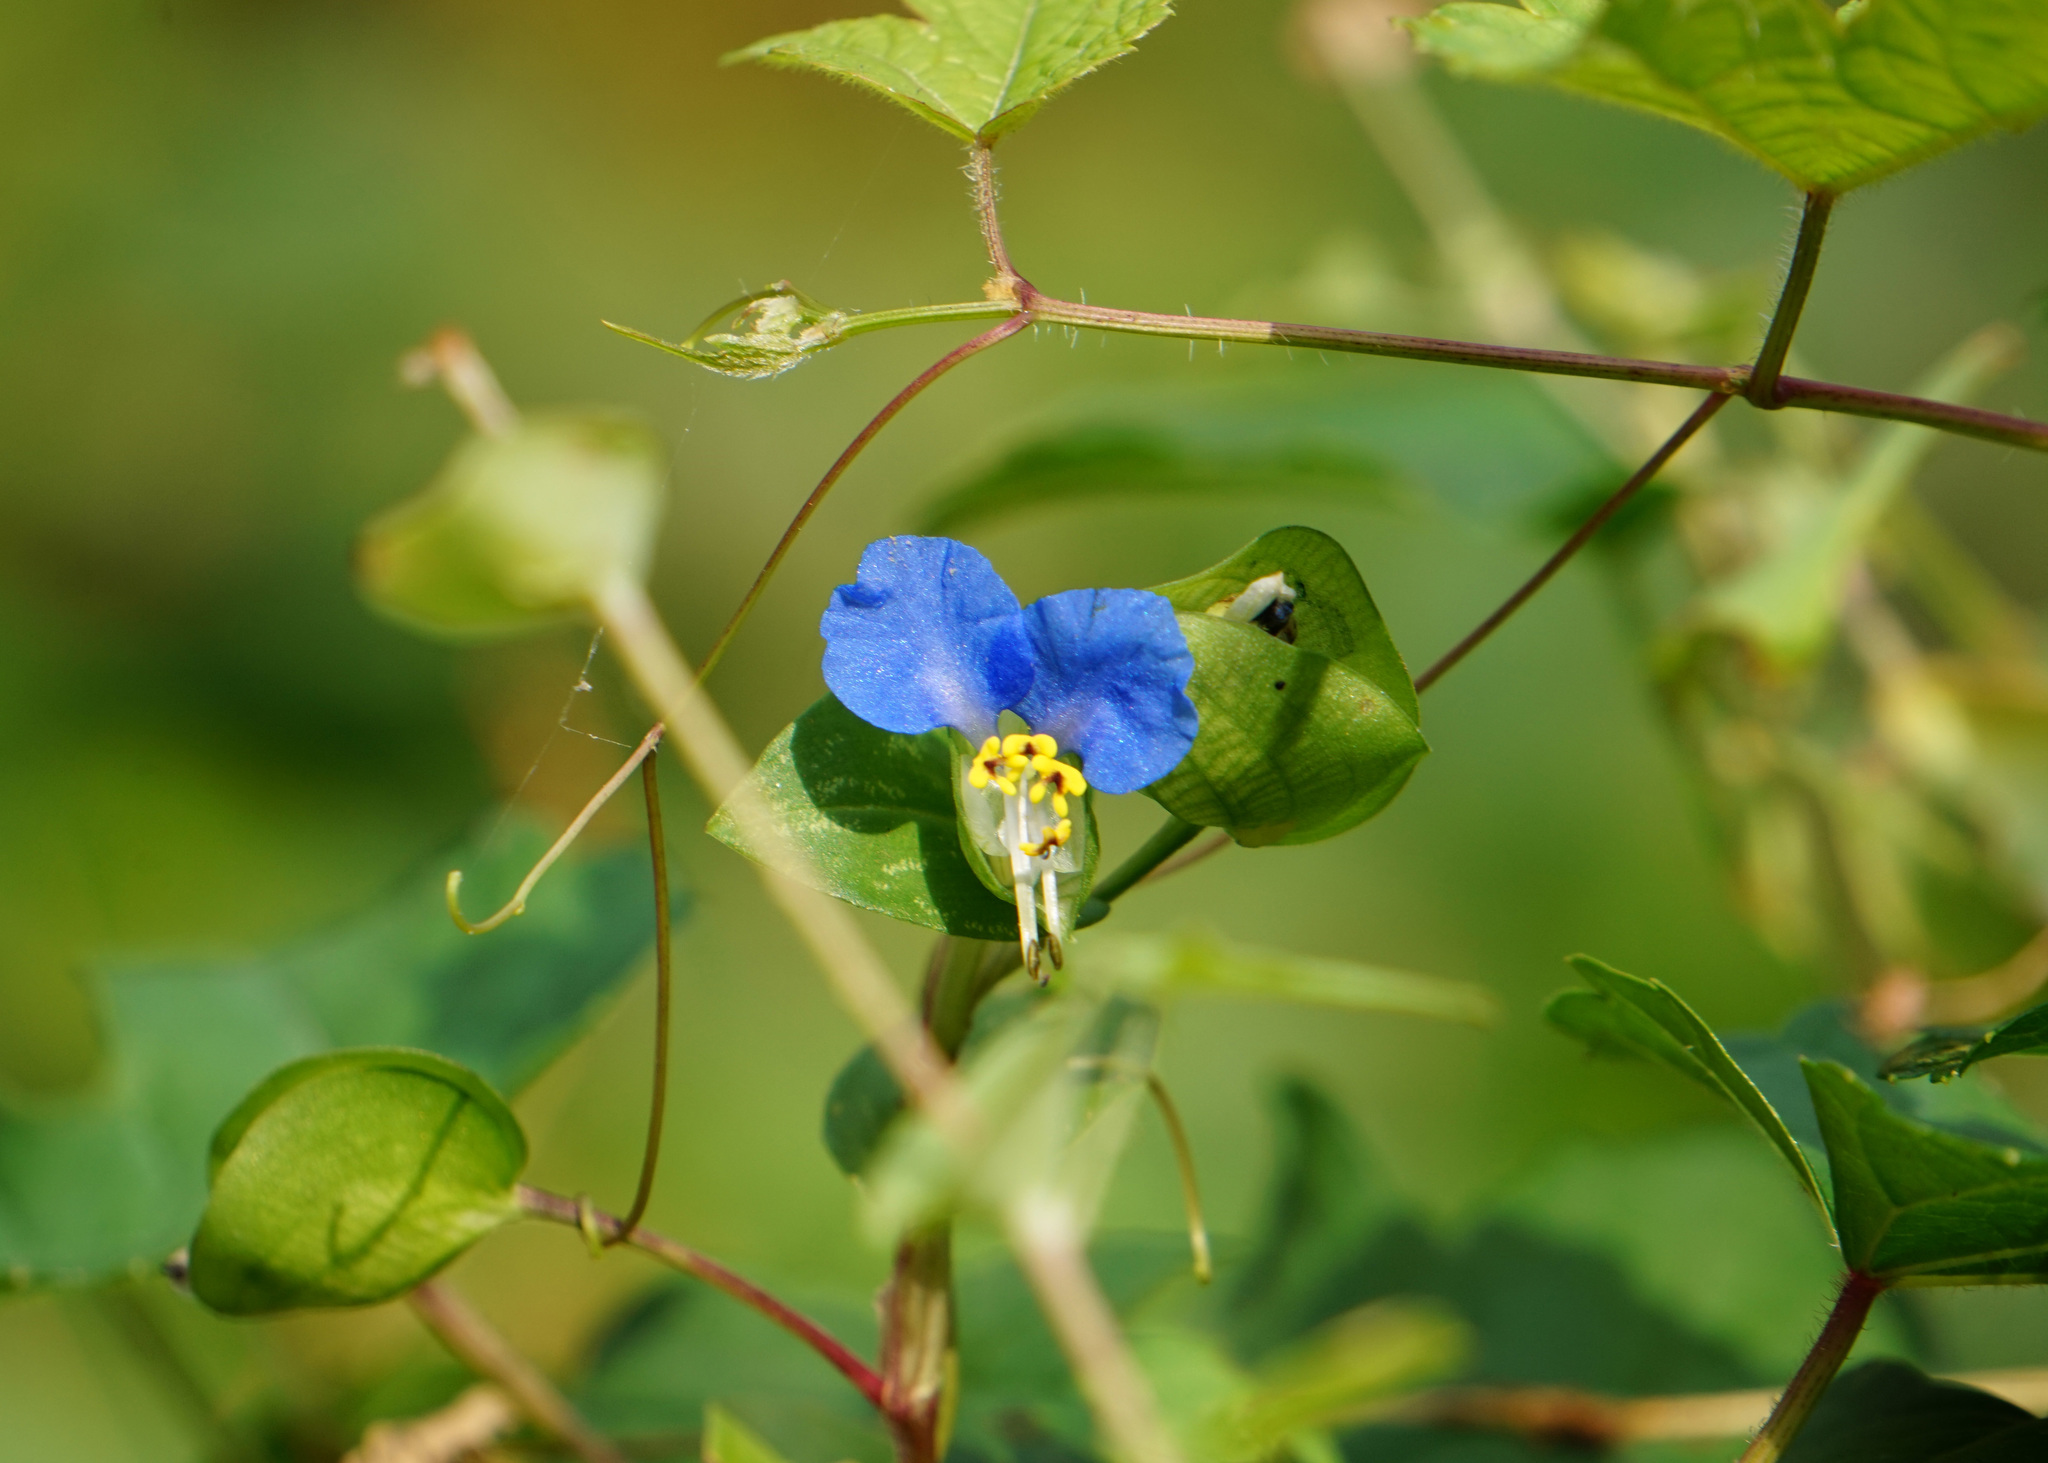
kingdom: Plantae
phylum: Tracheophyta
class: Liliopsida
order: Commelinales
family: Commelinaceae
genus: Commelina
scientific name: Commelina communis
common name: Asiatic dayflower
